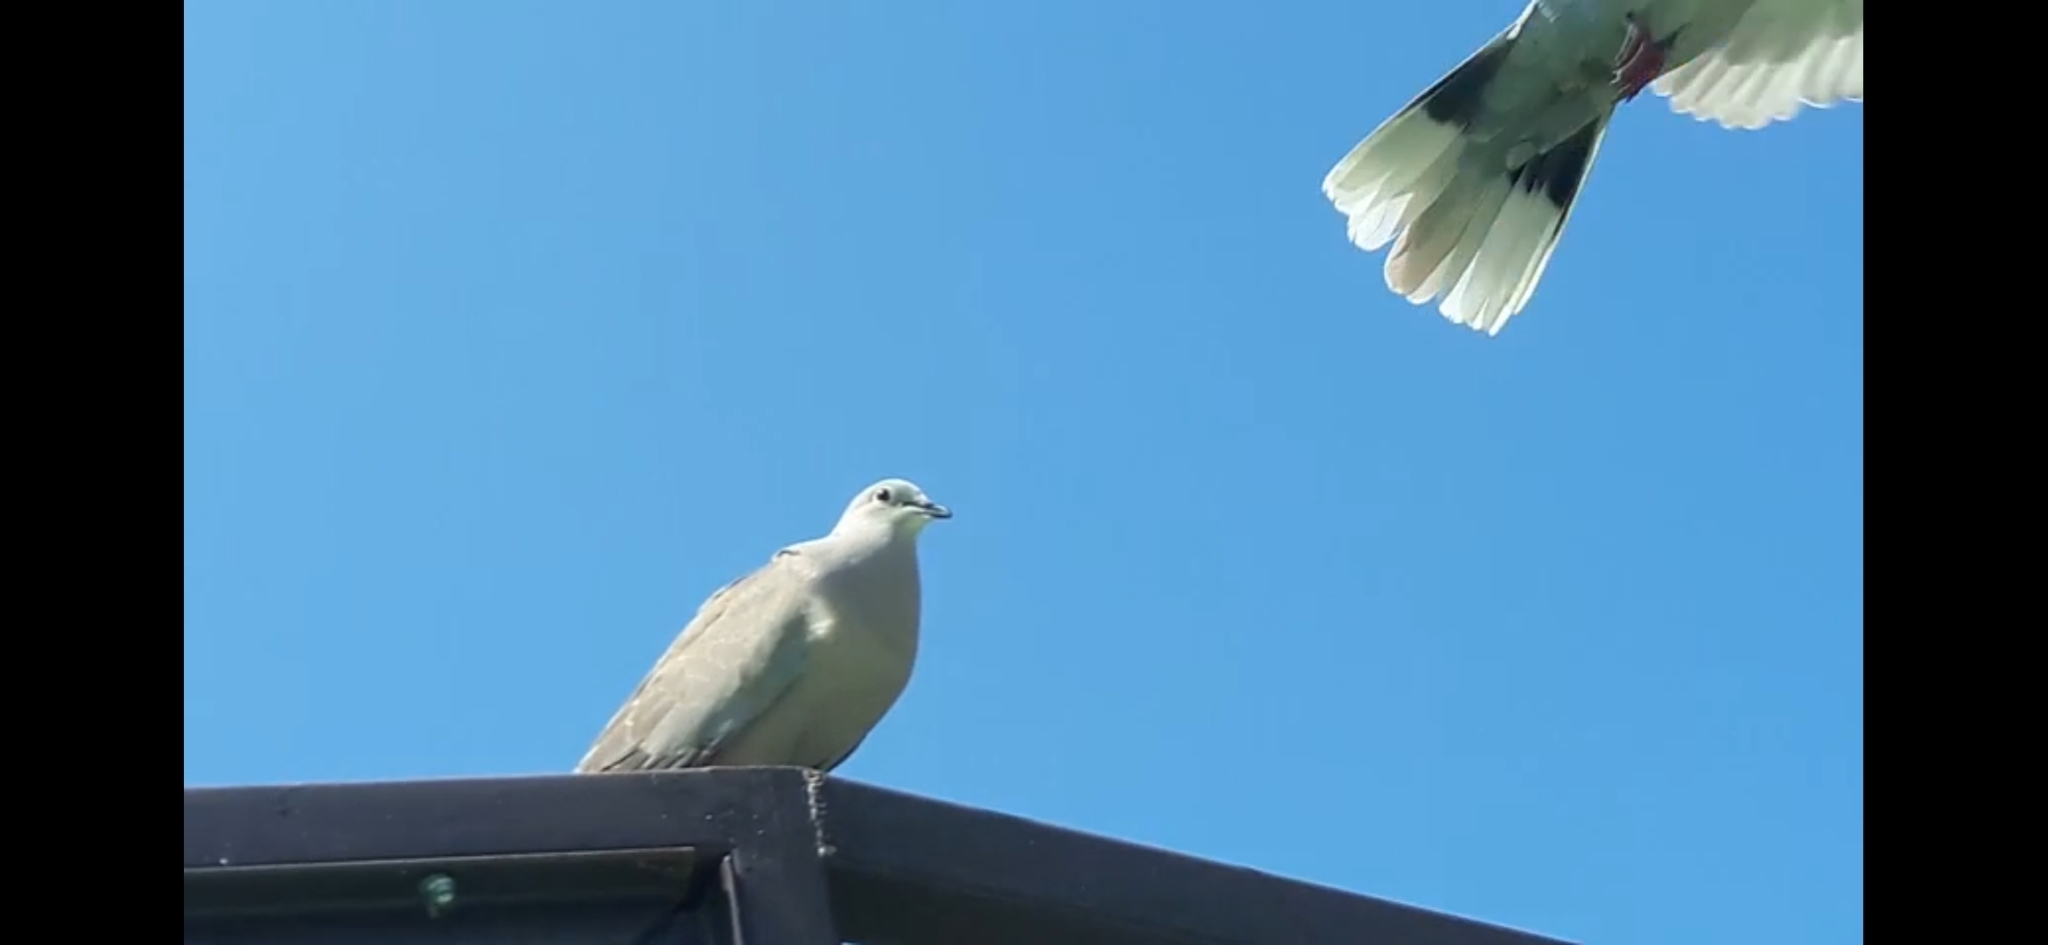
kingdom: Animalia
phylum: Chordata
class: Aves
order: Columbiformes
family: Columbidae
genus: Streptopelia
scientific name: Streptopelia decaocto
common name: Eurasian collared dove
